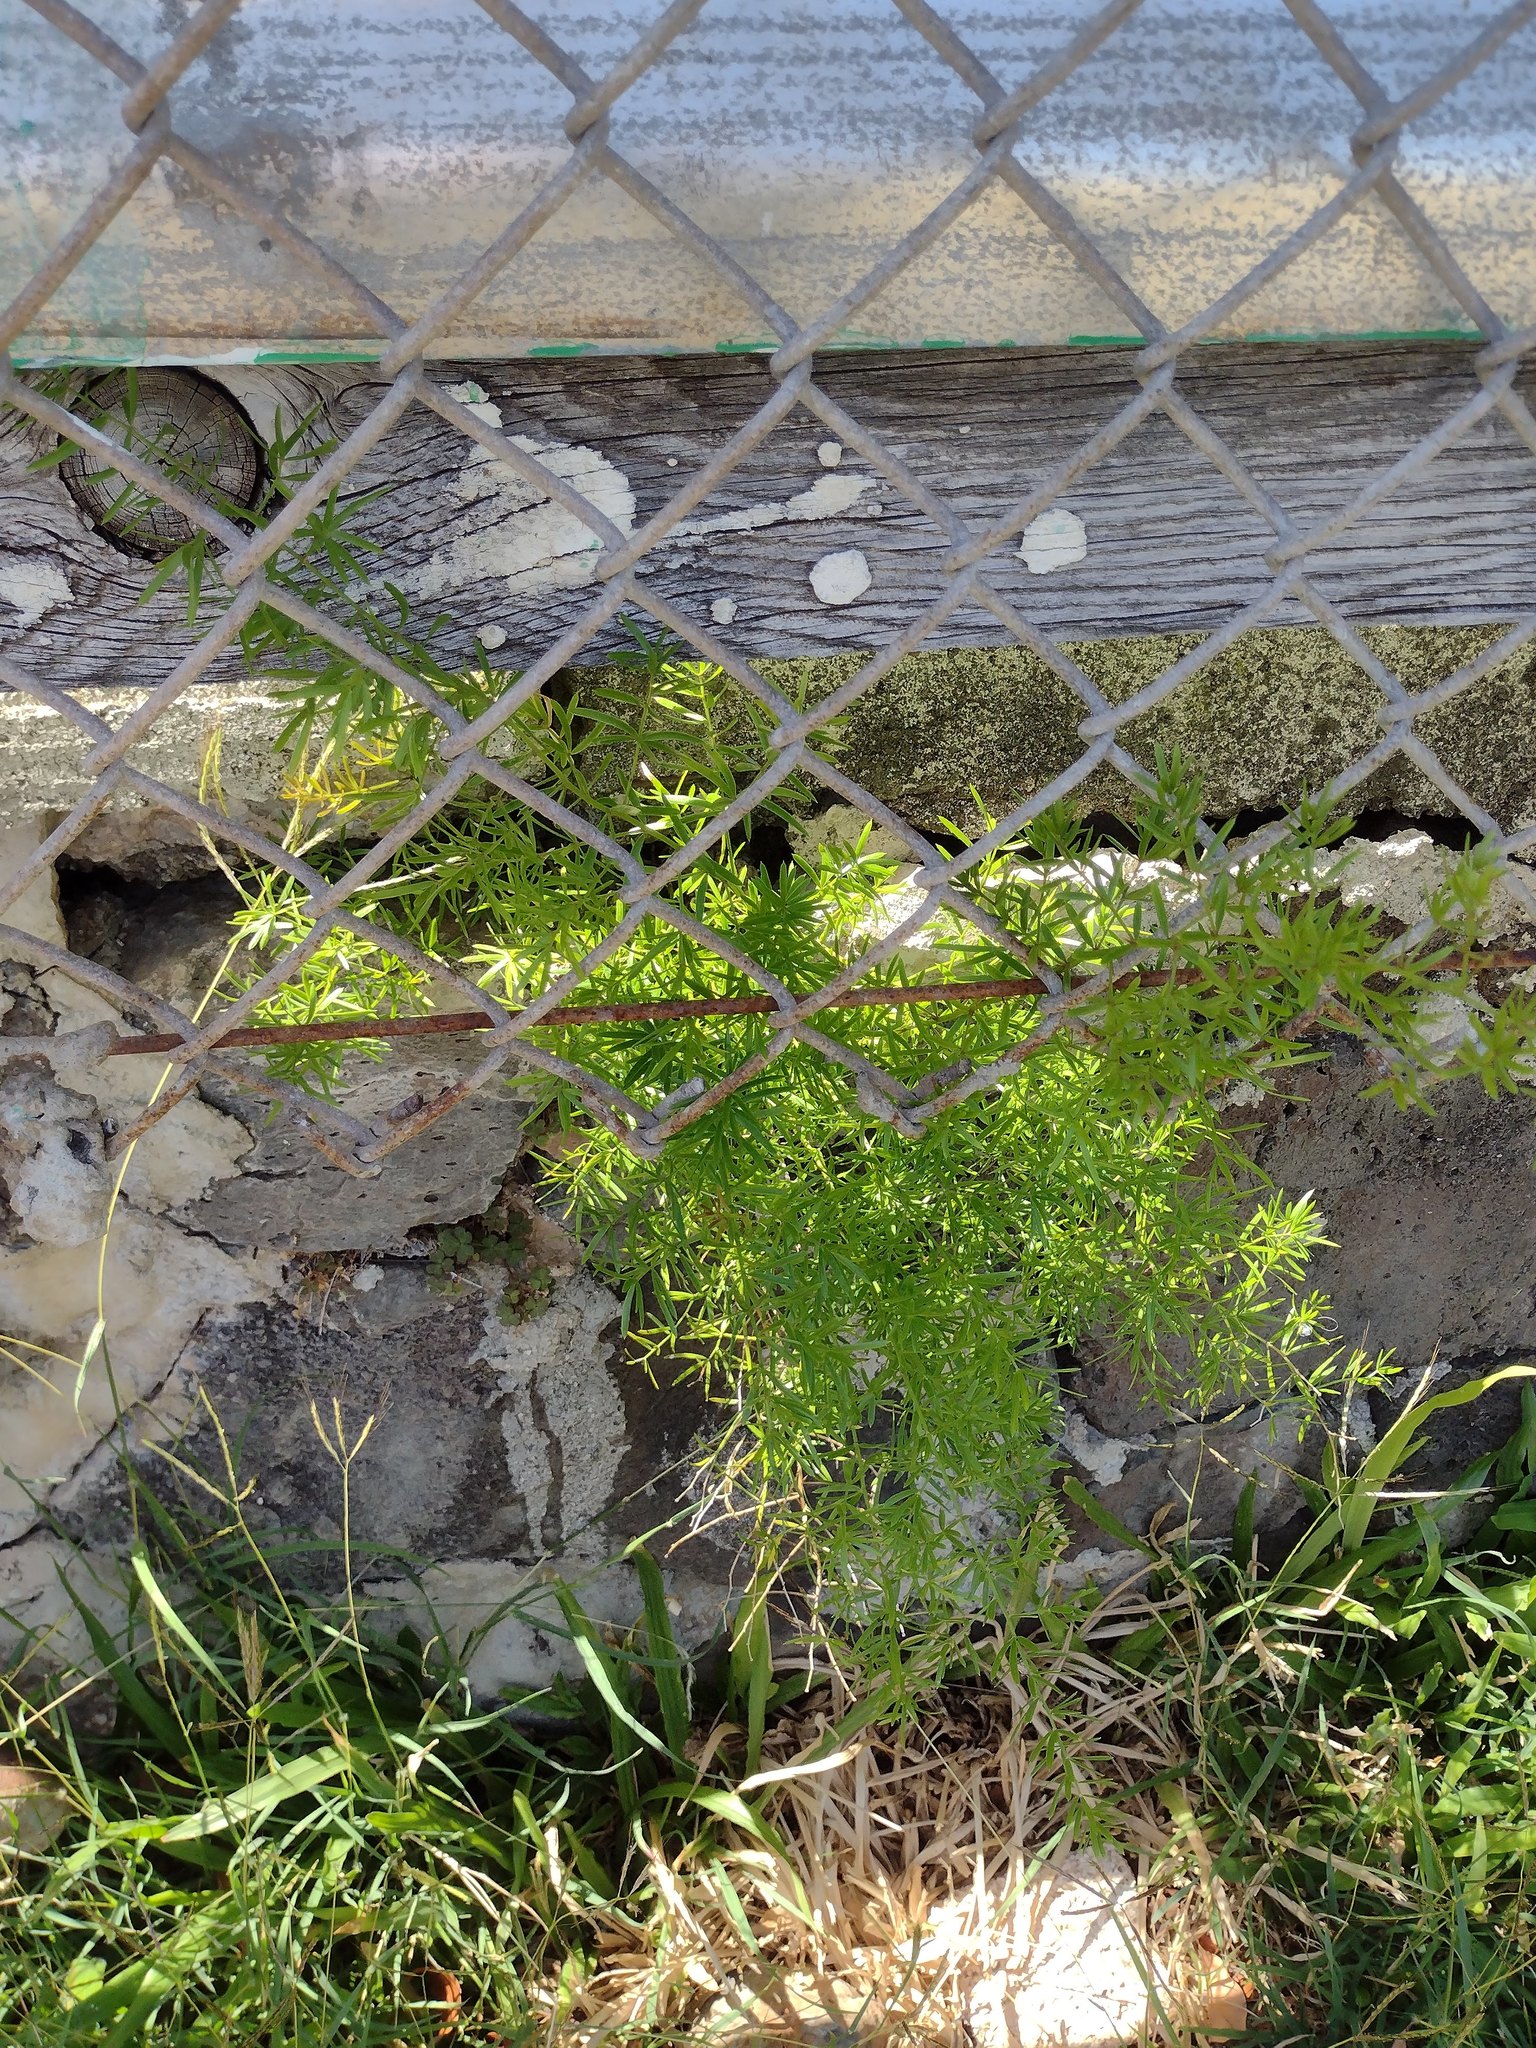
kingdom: Plantae
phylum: Tracheophyta
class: Liliopsida
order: Asparagales
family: Asparagaceae
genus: Asparagus
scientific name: Asparagus aethiopicus
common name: Sprenger's asparagus fern
